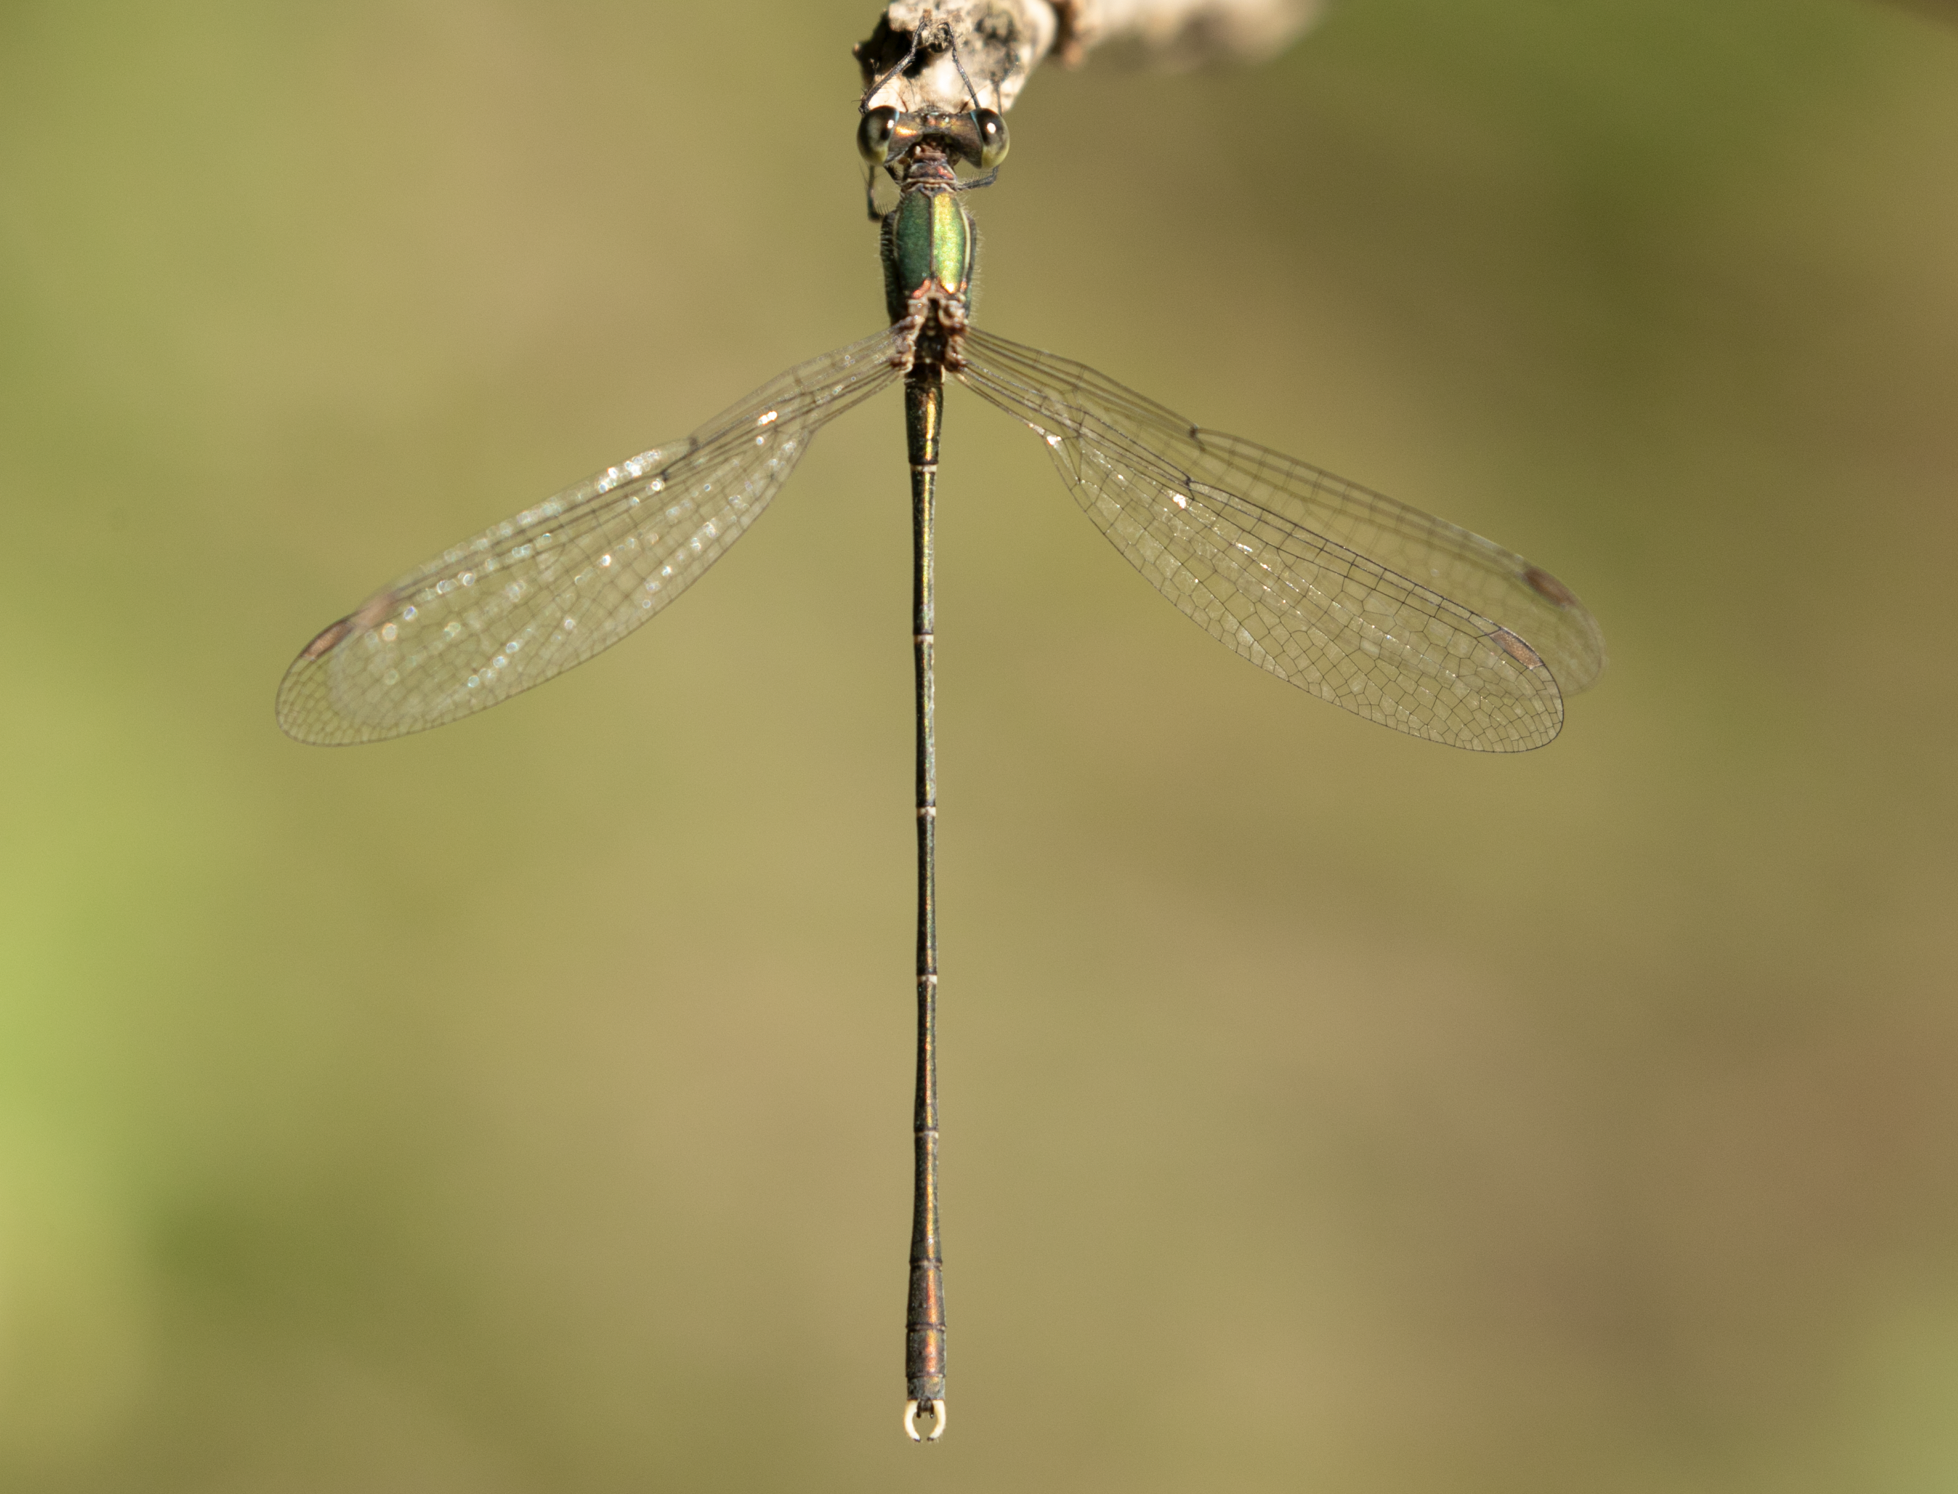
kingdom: Animalia
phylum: Arthropoda
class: Insecta
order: Odonata
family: Lestidae
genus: Chalcolestes
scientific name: Chalcolestes parvidens
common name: Eastern willow spreadwing
